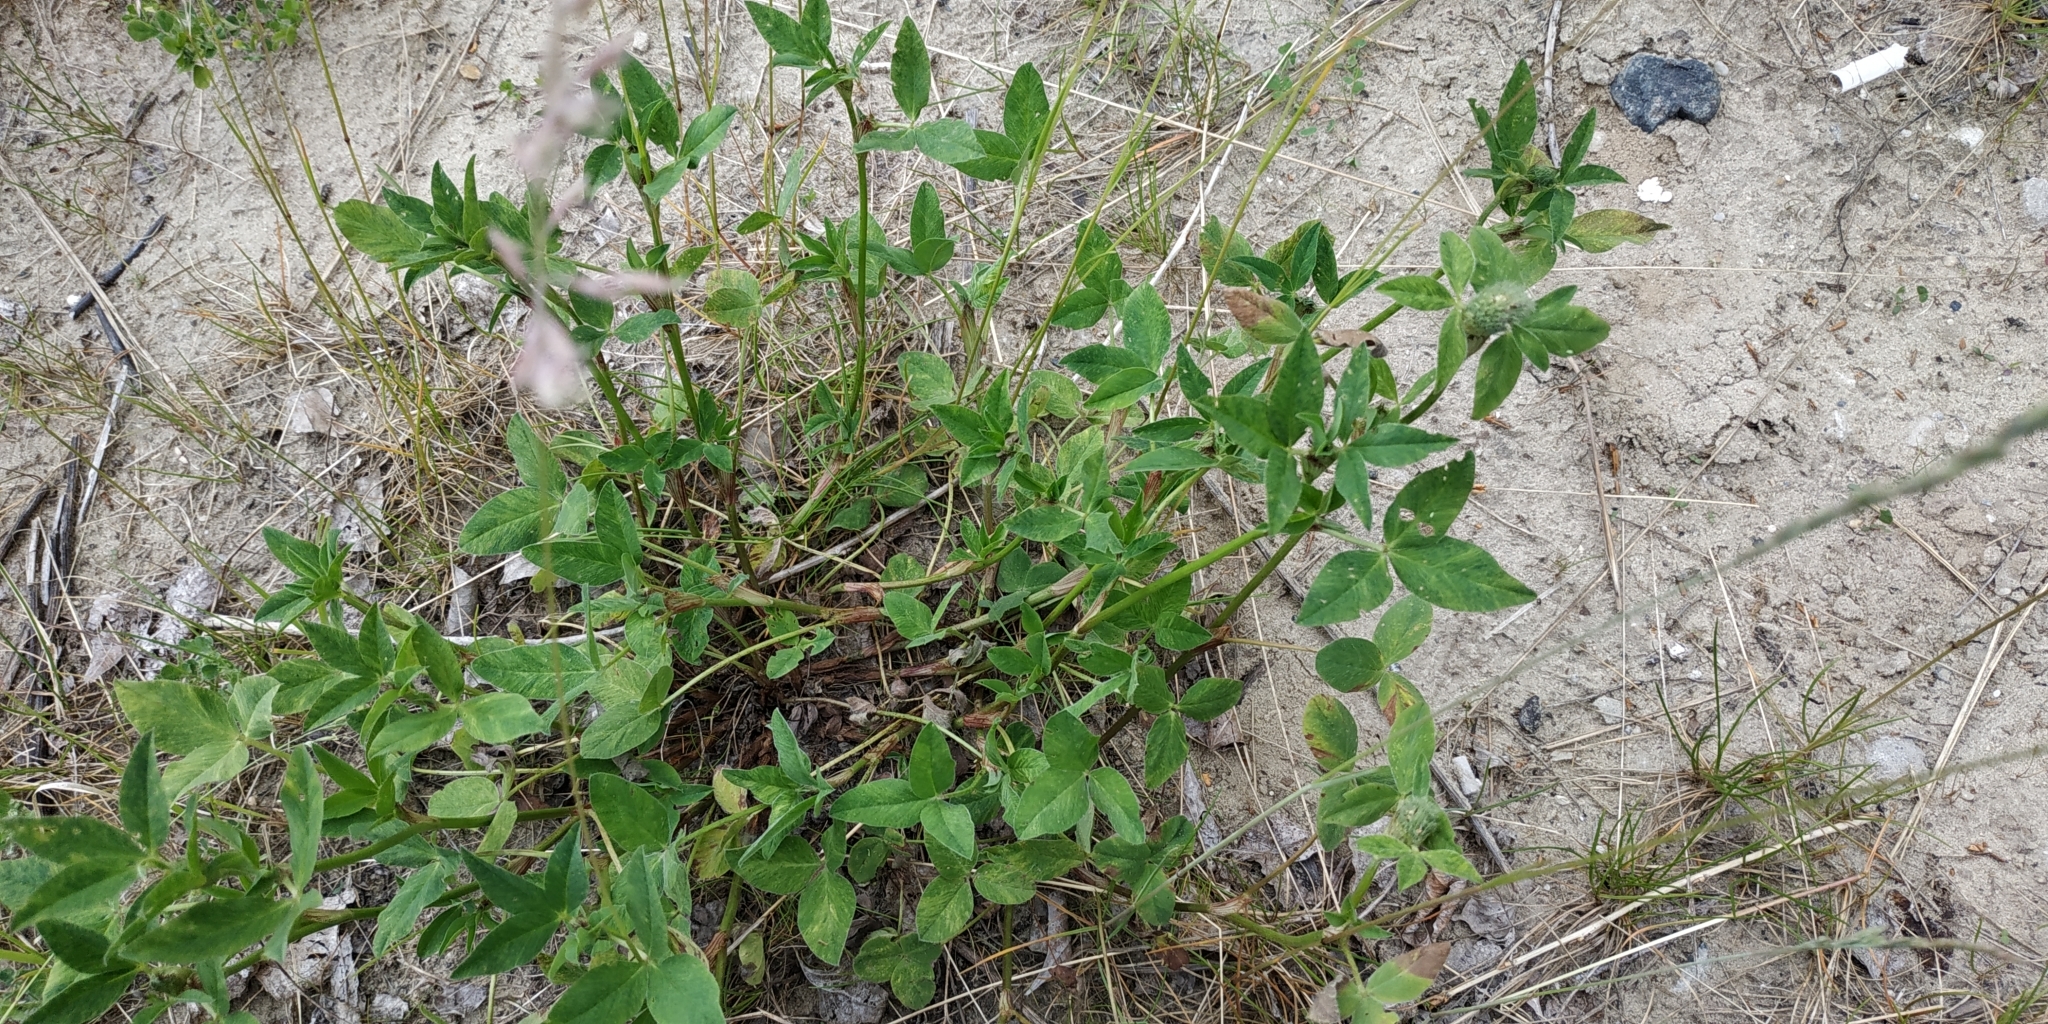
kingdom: Plantae
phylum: Tracheophyta
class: Magnoliopsida
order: Fabales
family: Fabaceae
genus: Trifolium
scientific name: Trifolium pratense
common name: Red clover
